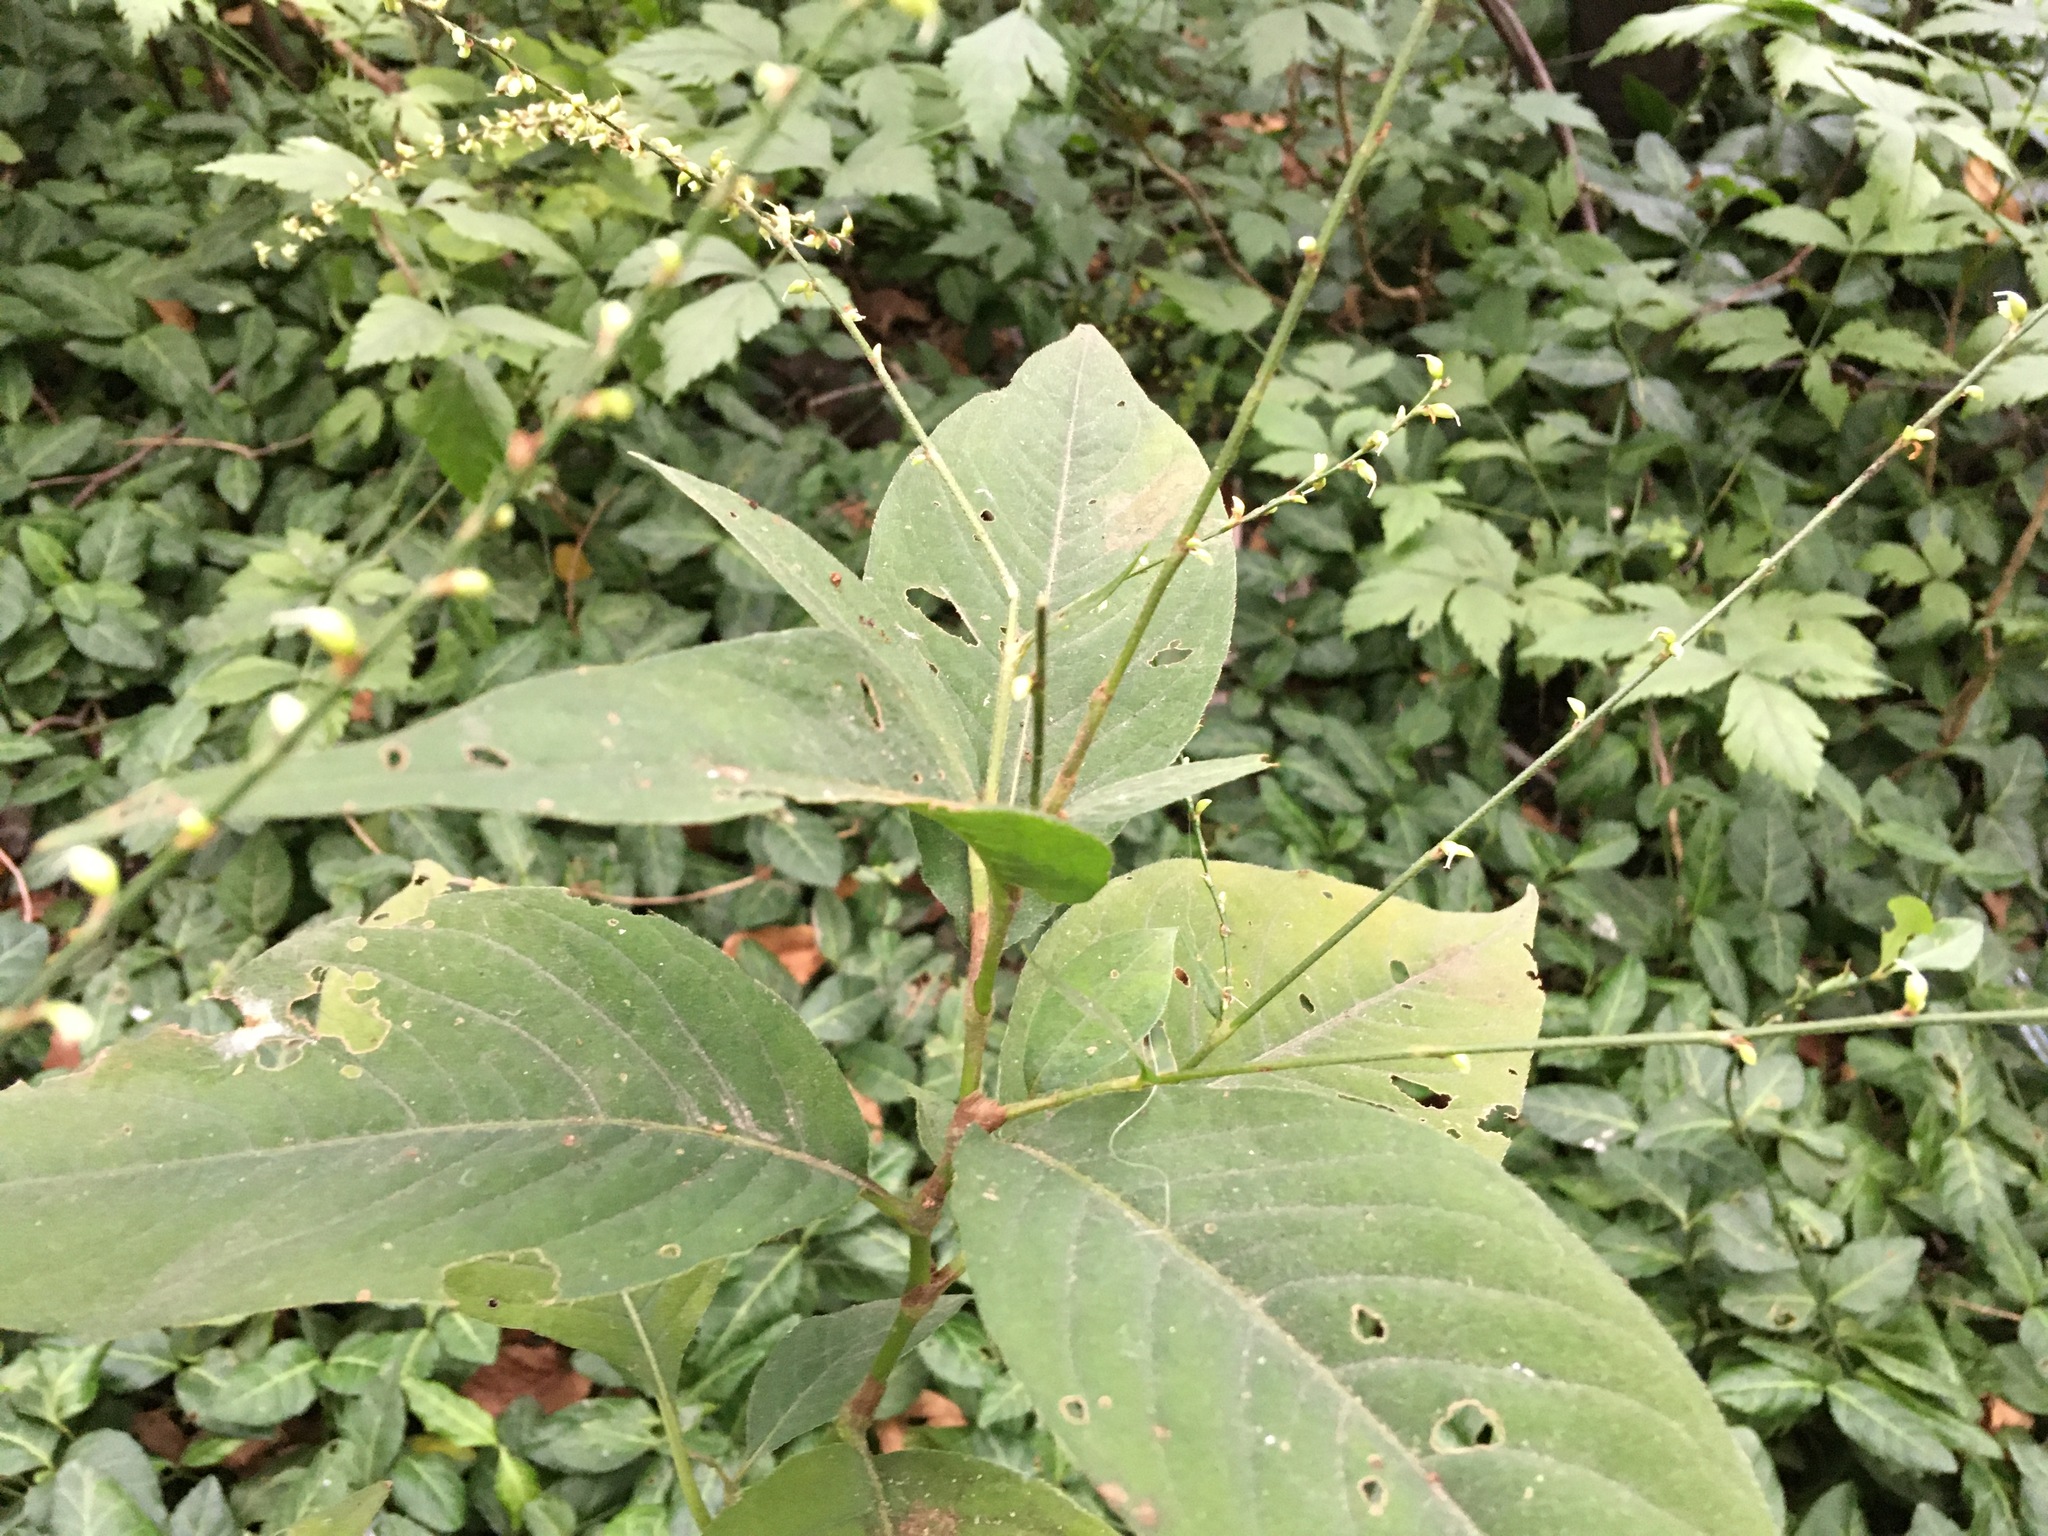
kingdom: Plantae
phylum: Tracheophyta
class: Magnoliopsida
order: Caryophyllales
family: Polygonaceae
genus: Persicaria
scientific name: Persicaria virginiana
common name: Jumpseed
